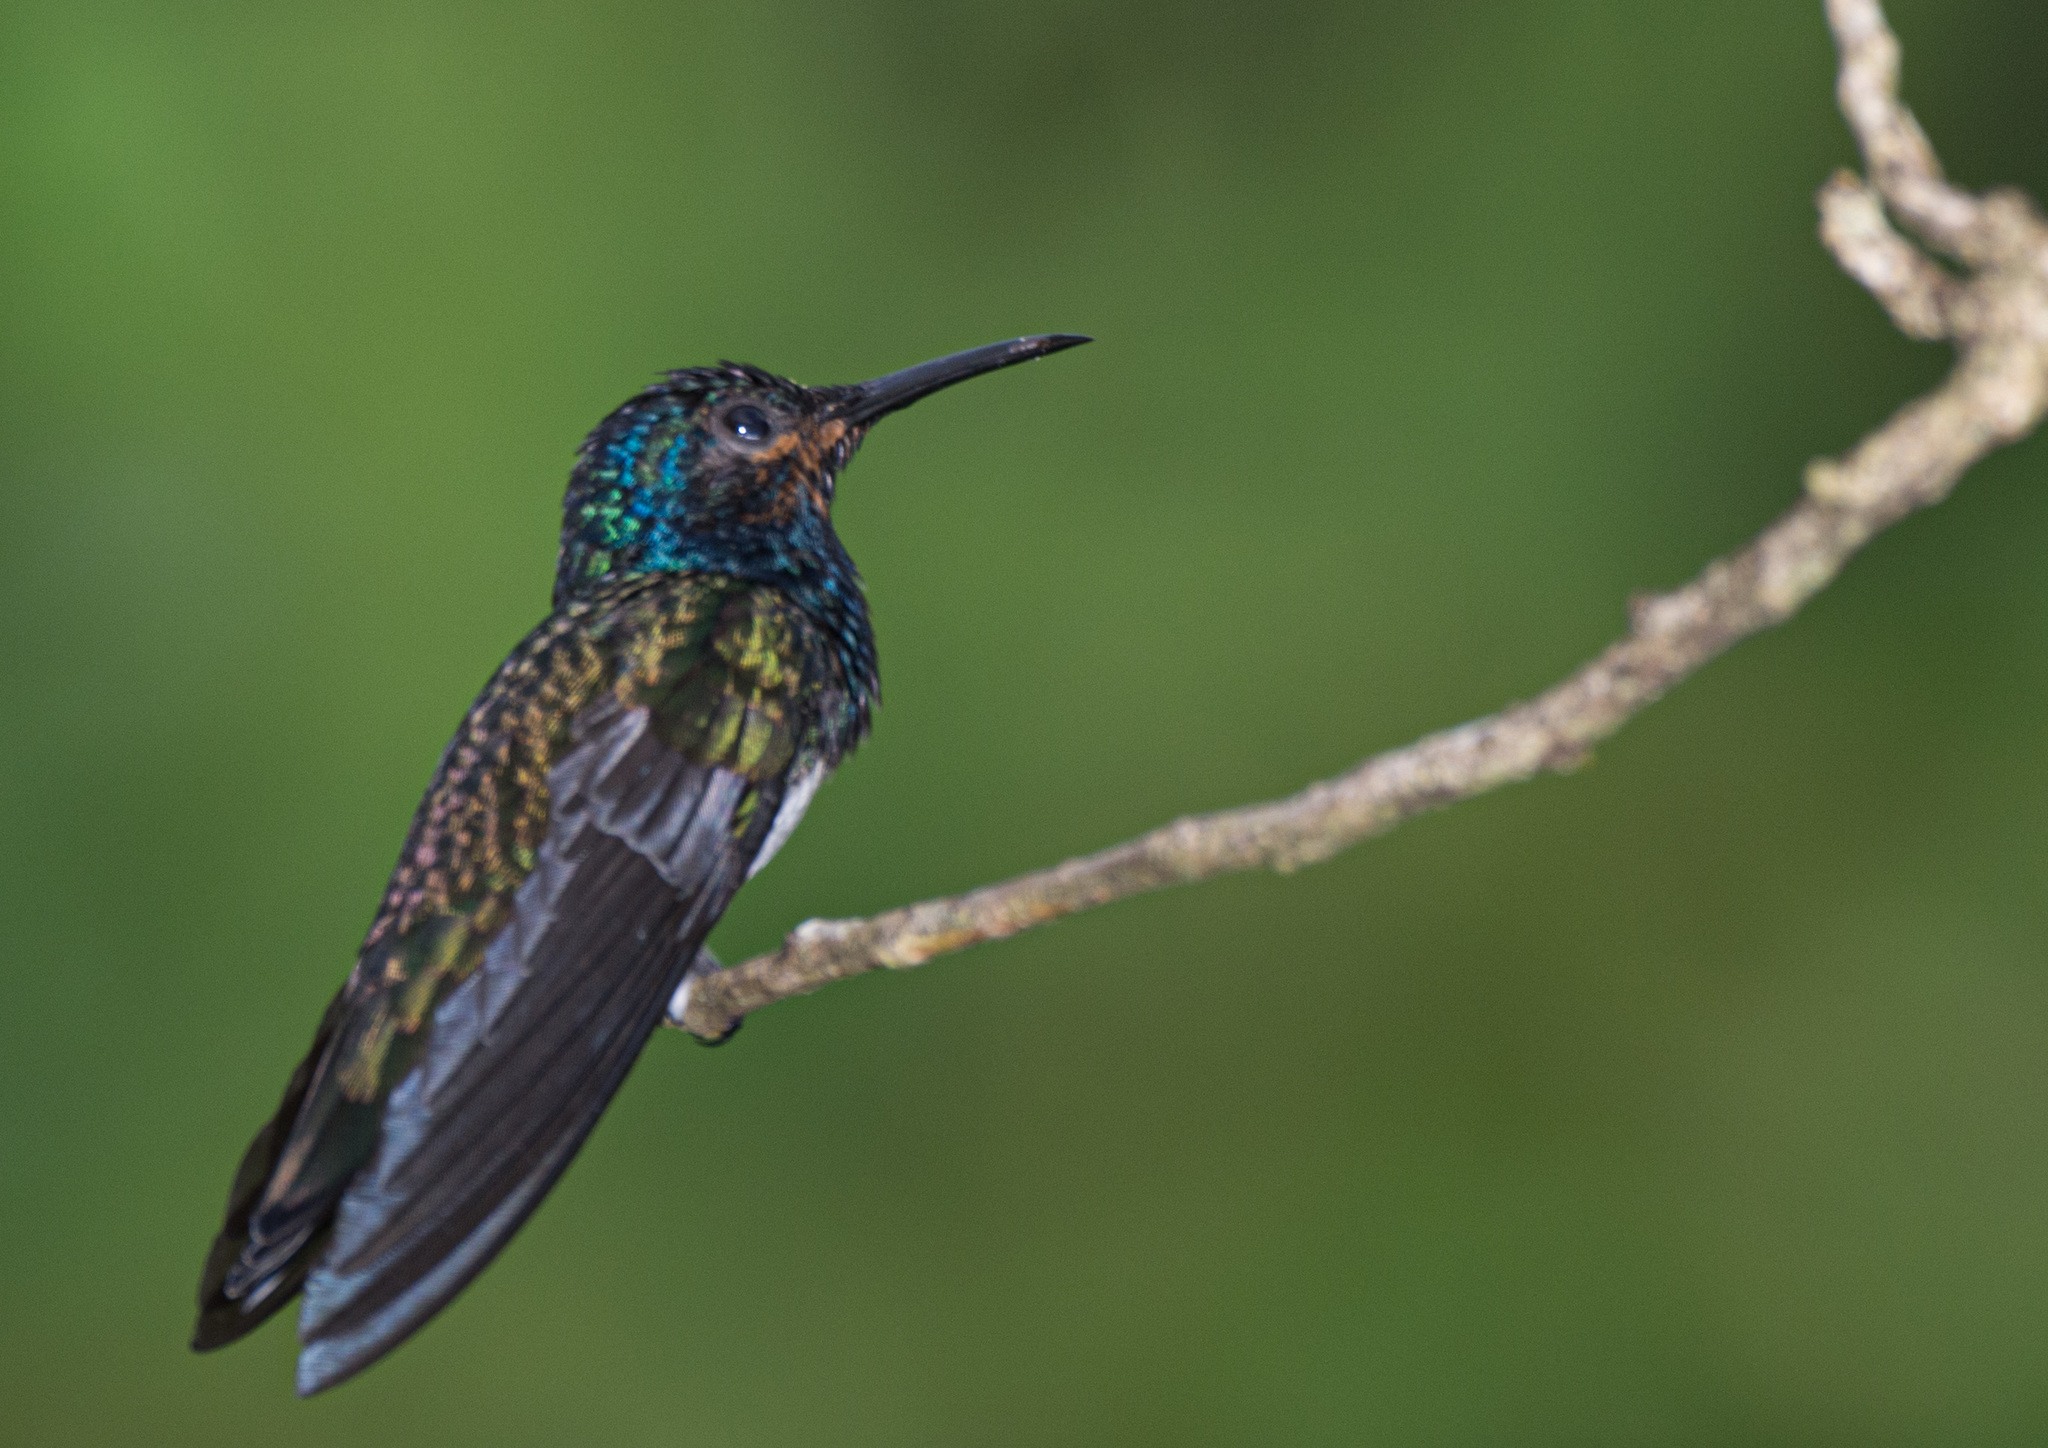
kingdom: Animalia
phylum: Chordata
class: Aves
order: Apodiformes
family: Trochilidae
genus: Florisuga
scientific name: Florisuga mellivora
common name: White-necked jacobin
